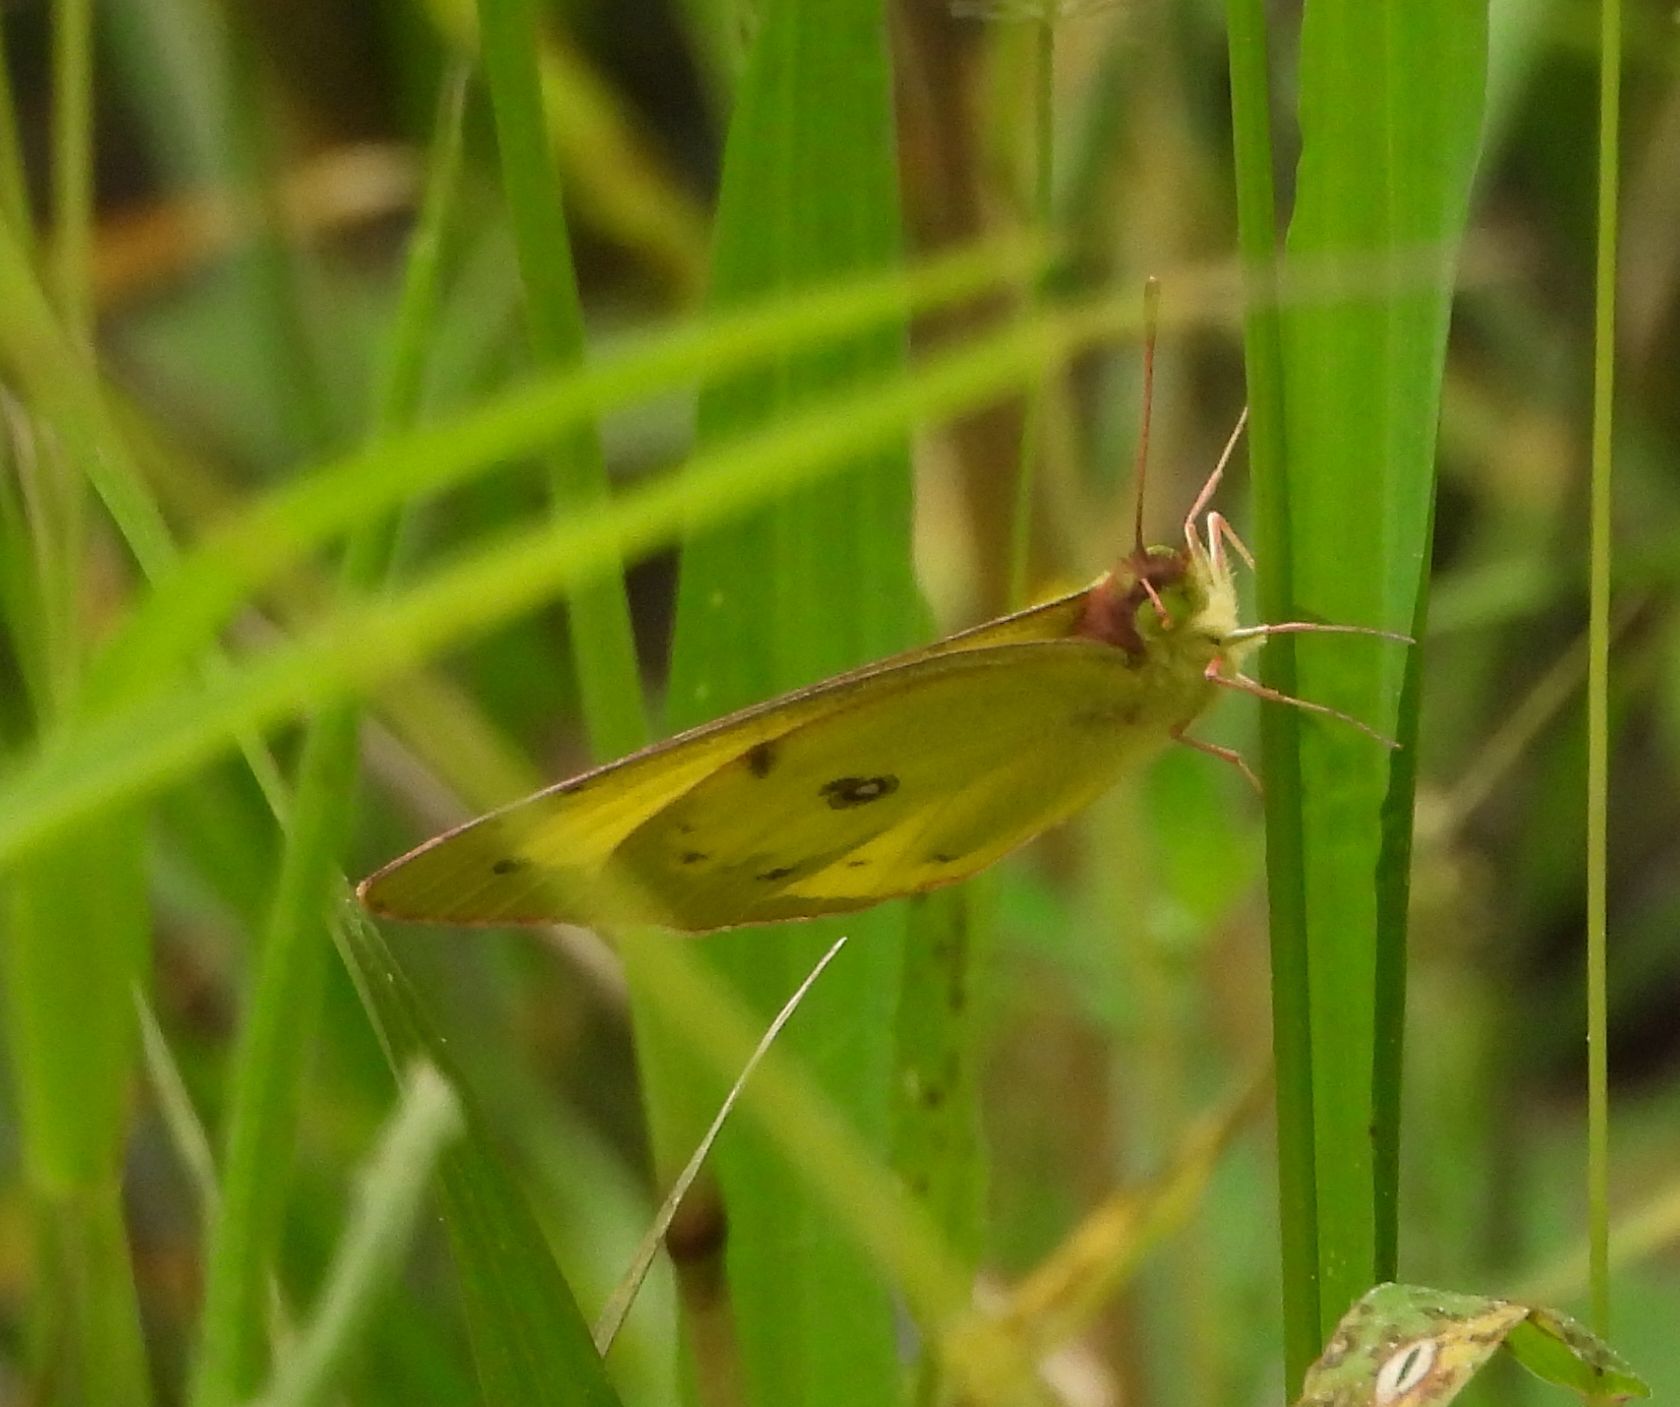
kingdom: Animalia
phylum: Arthropoda
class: Insecta
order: Lepidoptera
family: Pieridae
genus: Colias
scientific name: Colias philodice
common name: Clouded sulphur
